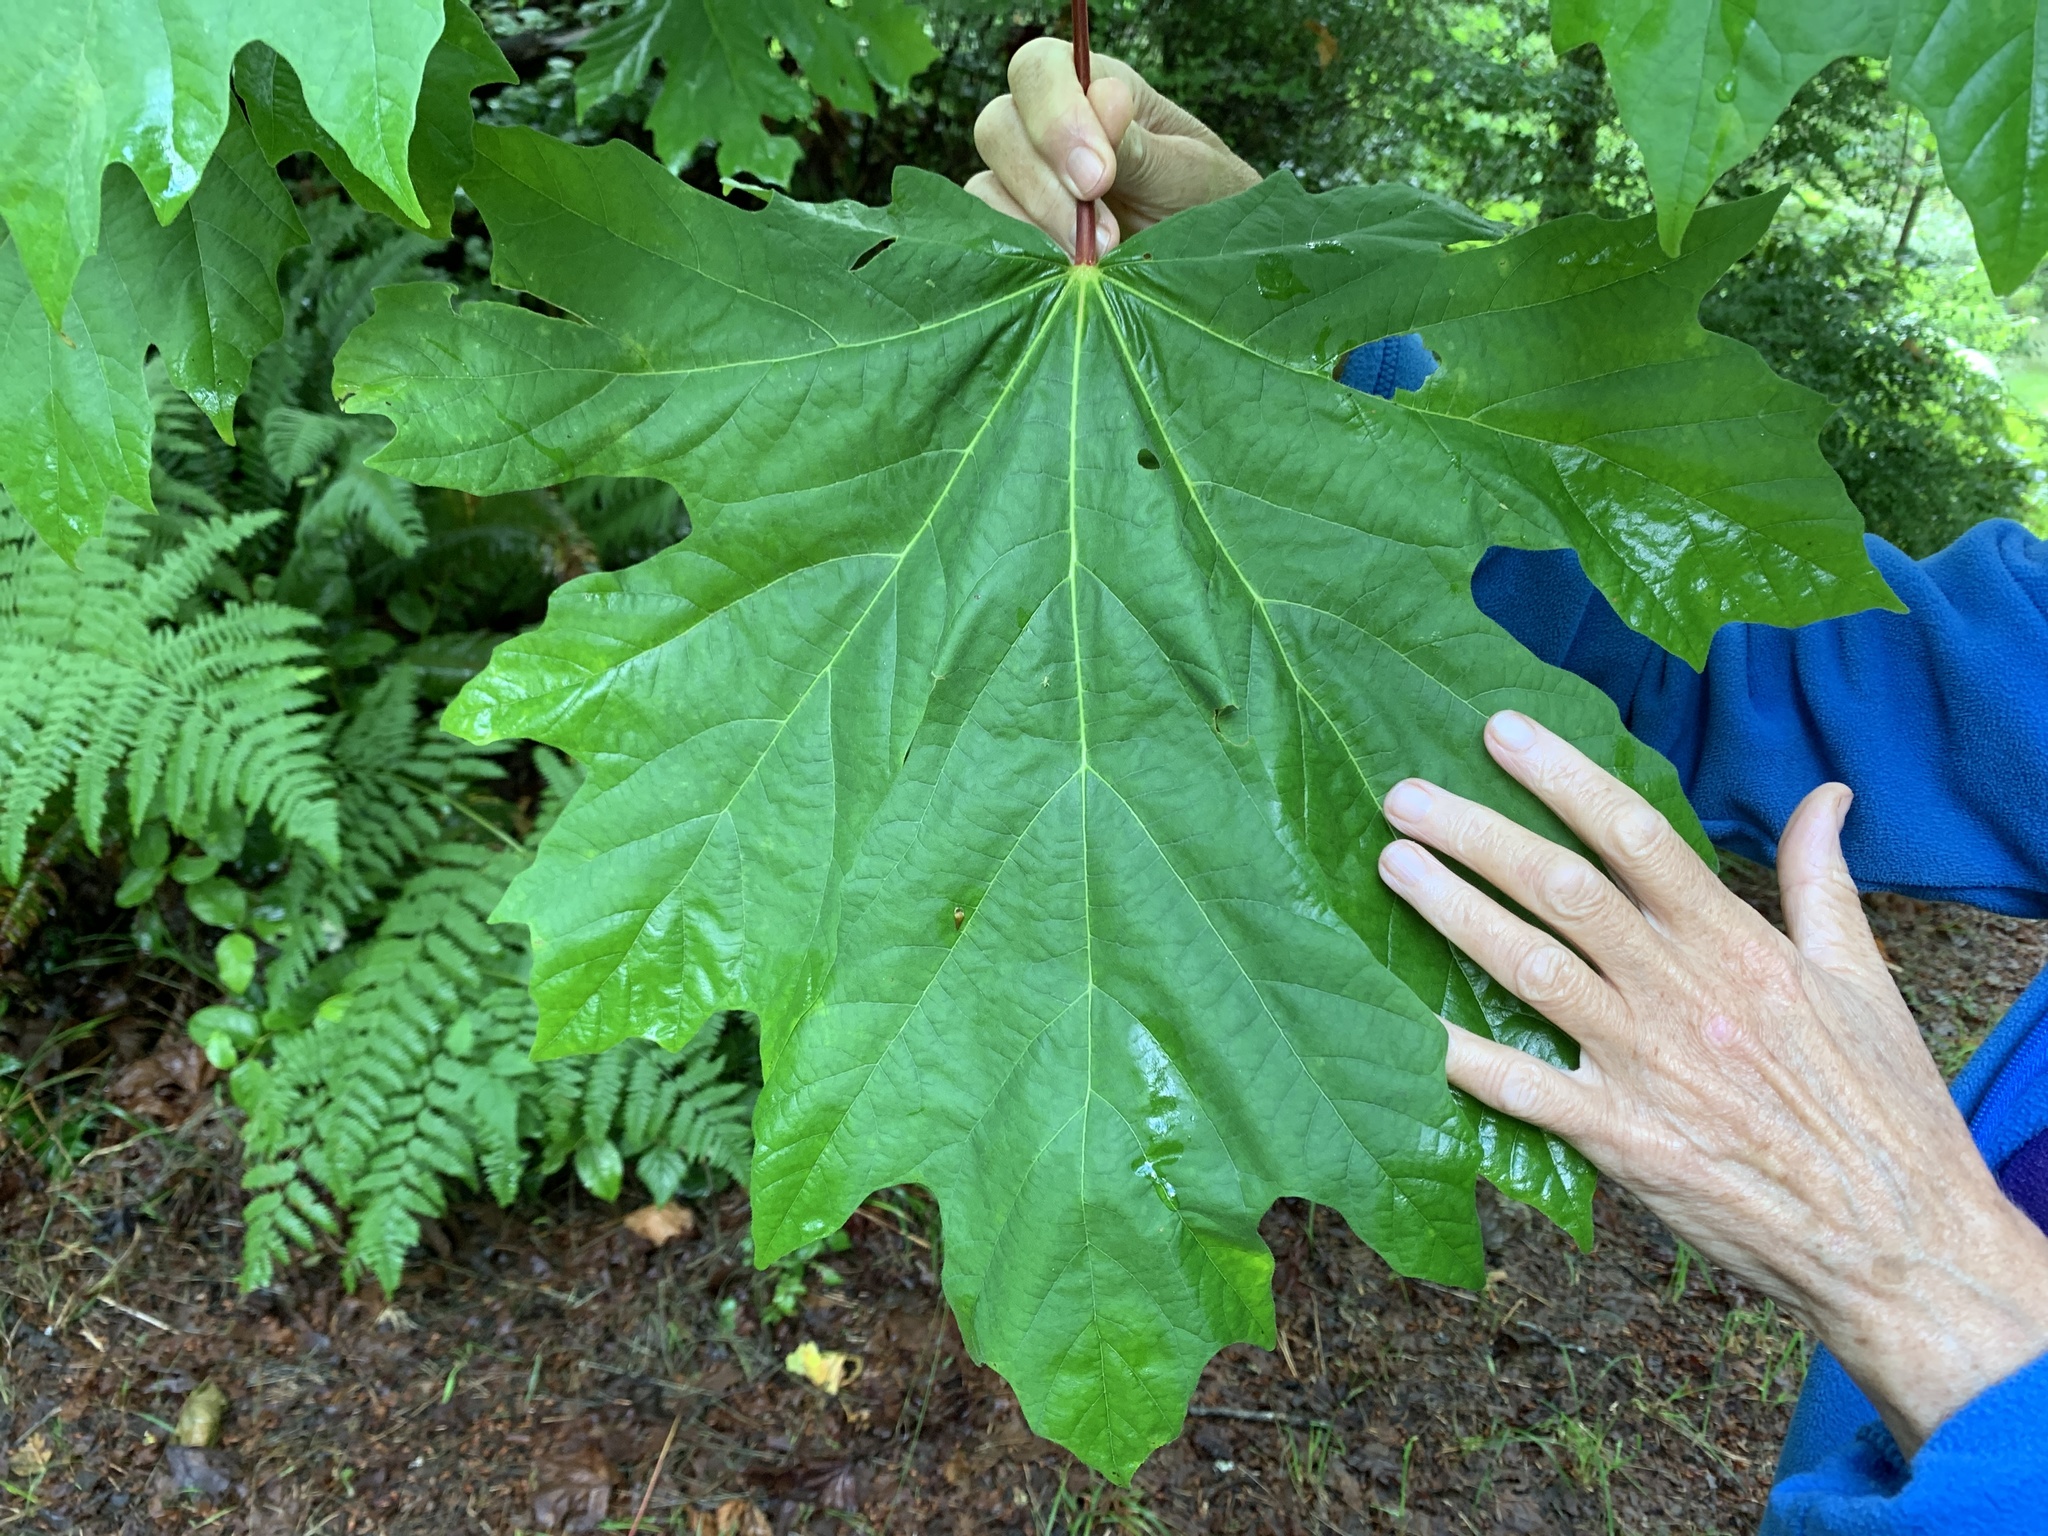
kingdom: Plantae
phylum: Tracheophyta
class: Magnoliopsida
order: Sapindales
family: Sapindaceae
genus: Acer
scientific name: Acer macrophyllum
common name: Oregon maple
